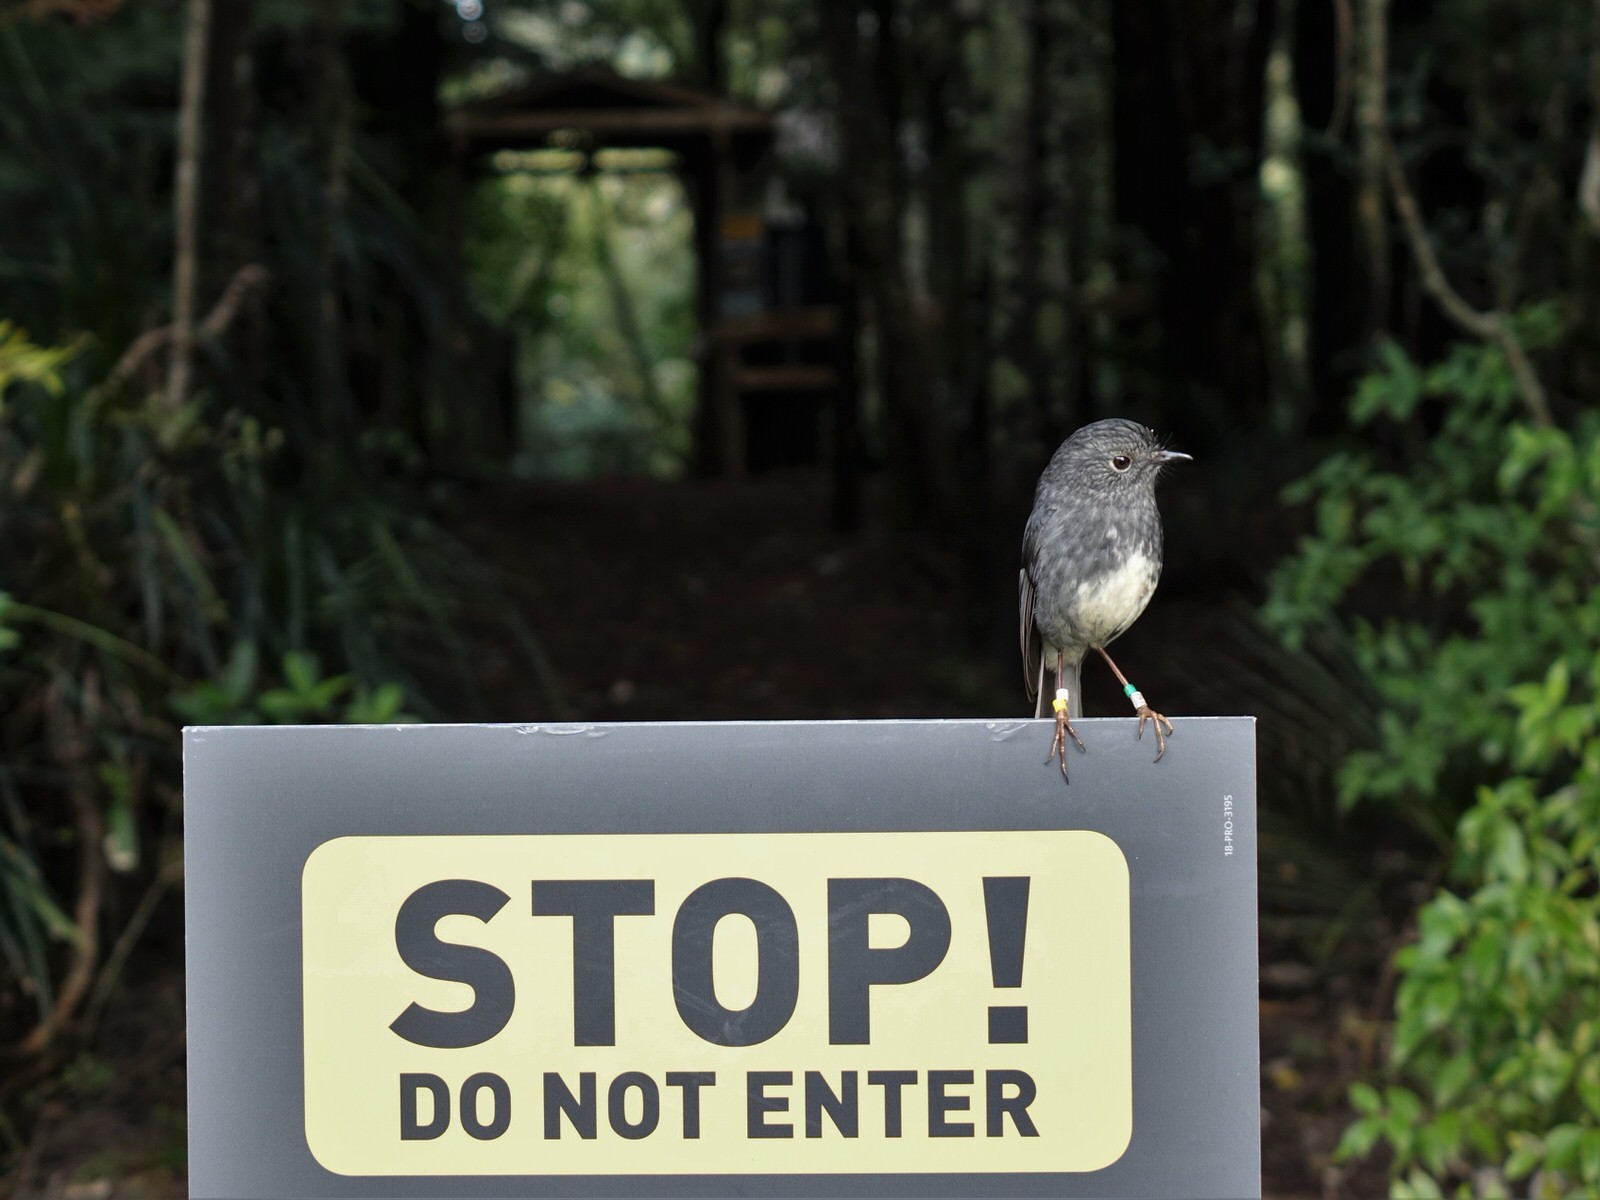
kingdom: Animalia
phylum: Chordata
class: Aves
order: Passeriformes
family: Petroicidae
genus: Petroica
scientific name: Petroica australis
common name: New zealand robin
